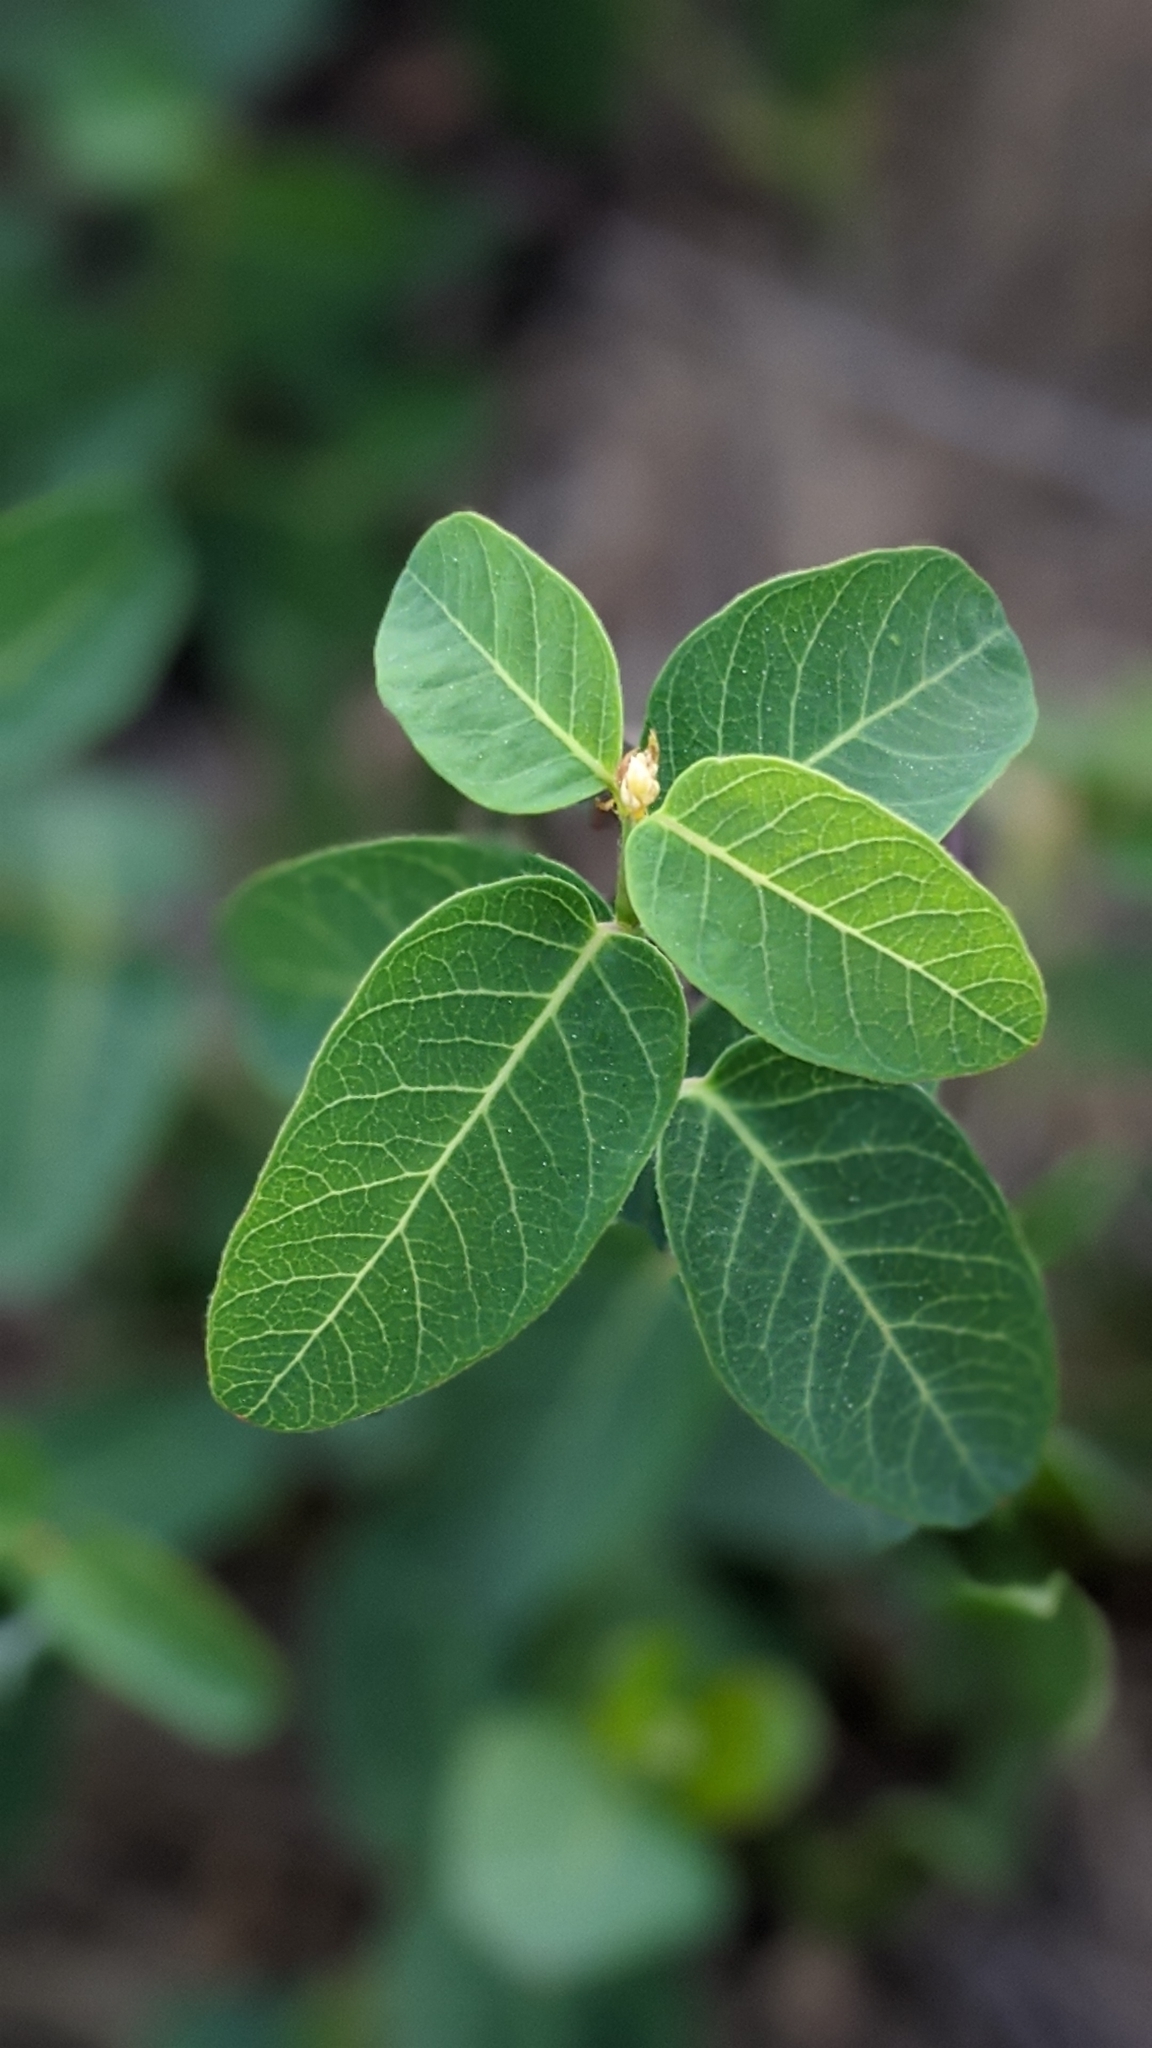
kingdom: Plantae
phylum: Tracheophyta
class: Magnoliopsida
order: Gentianales
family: Apocynaceae
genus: Apocynum
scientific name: Apocynum androsaemifolium
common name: Spreading dogbane
